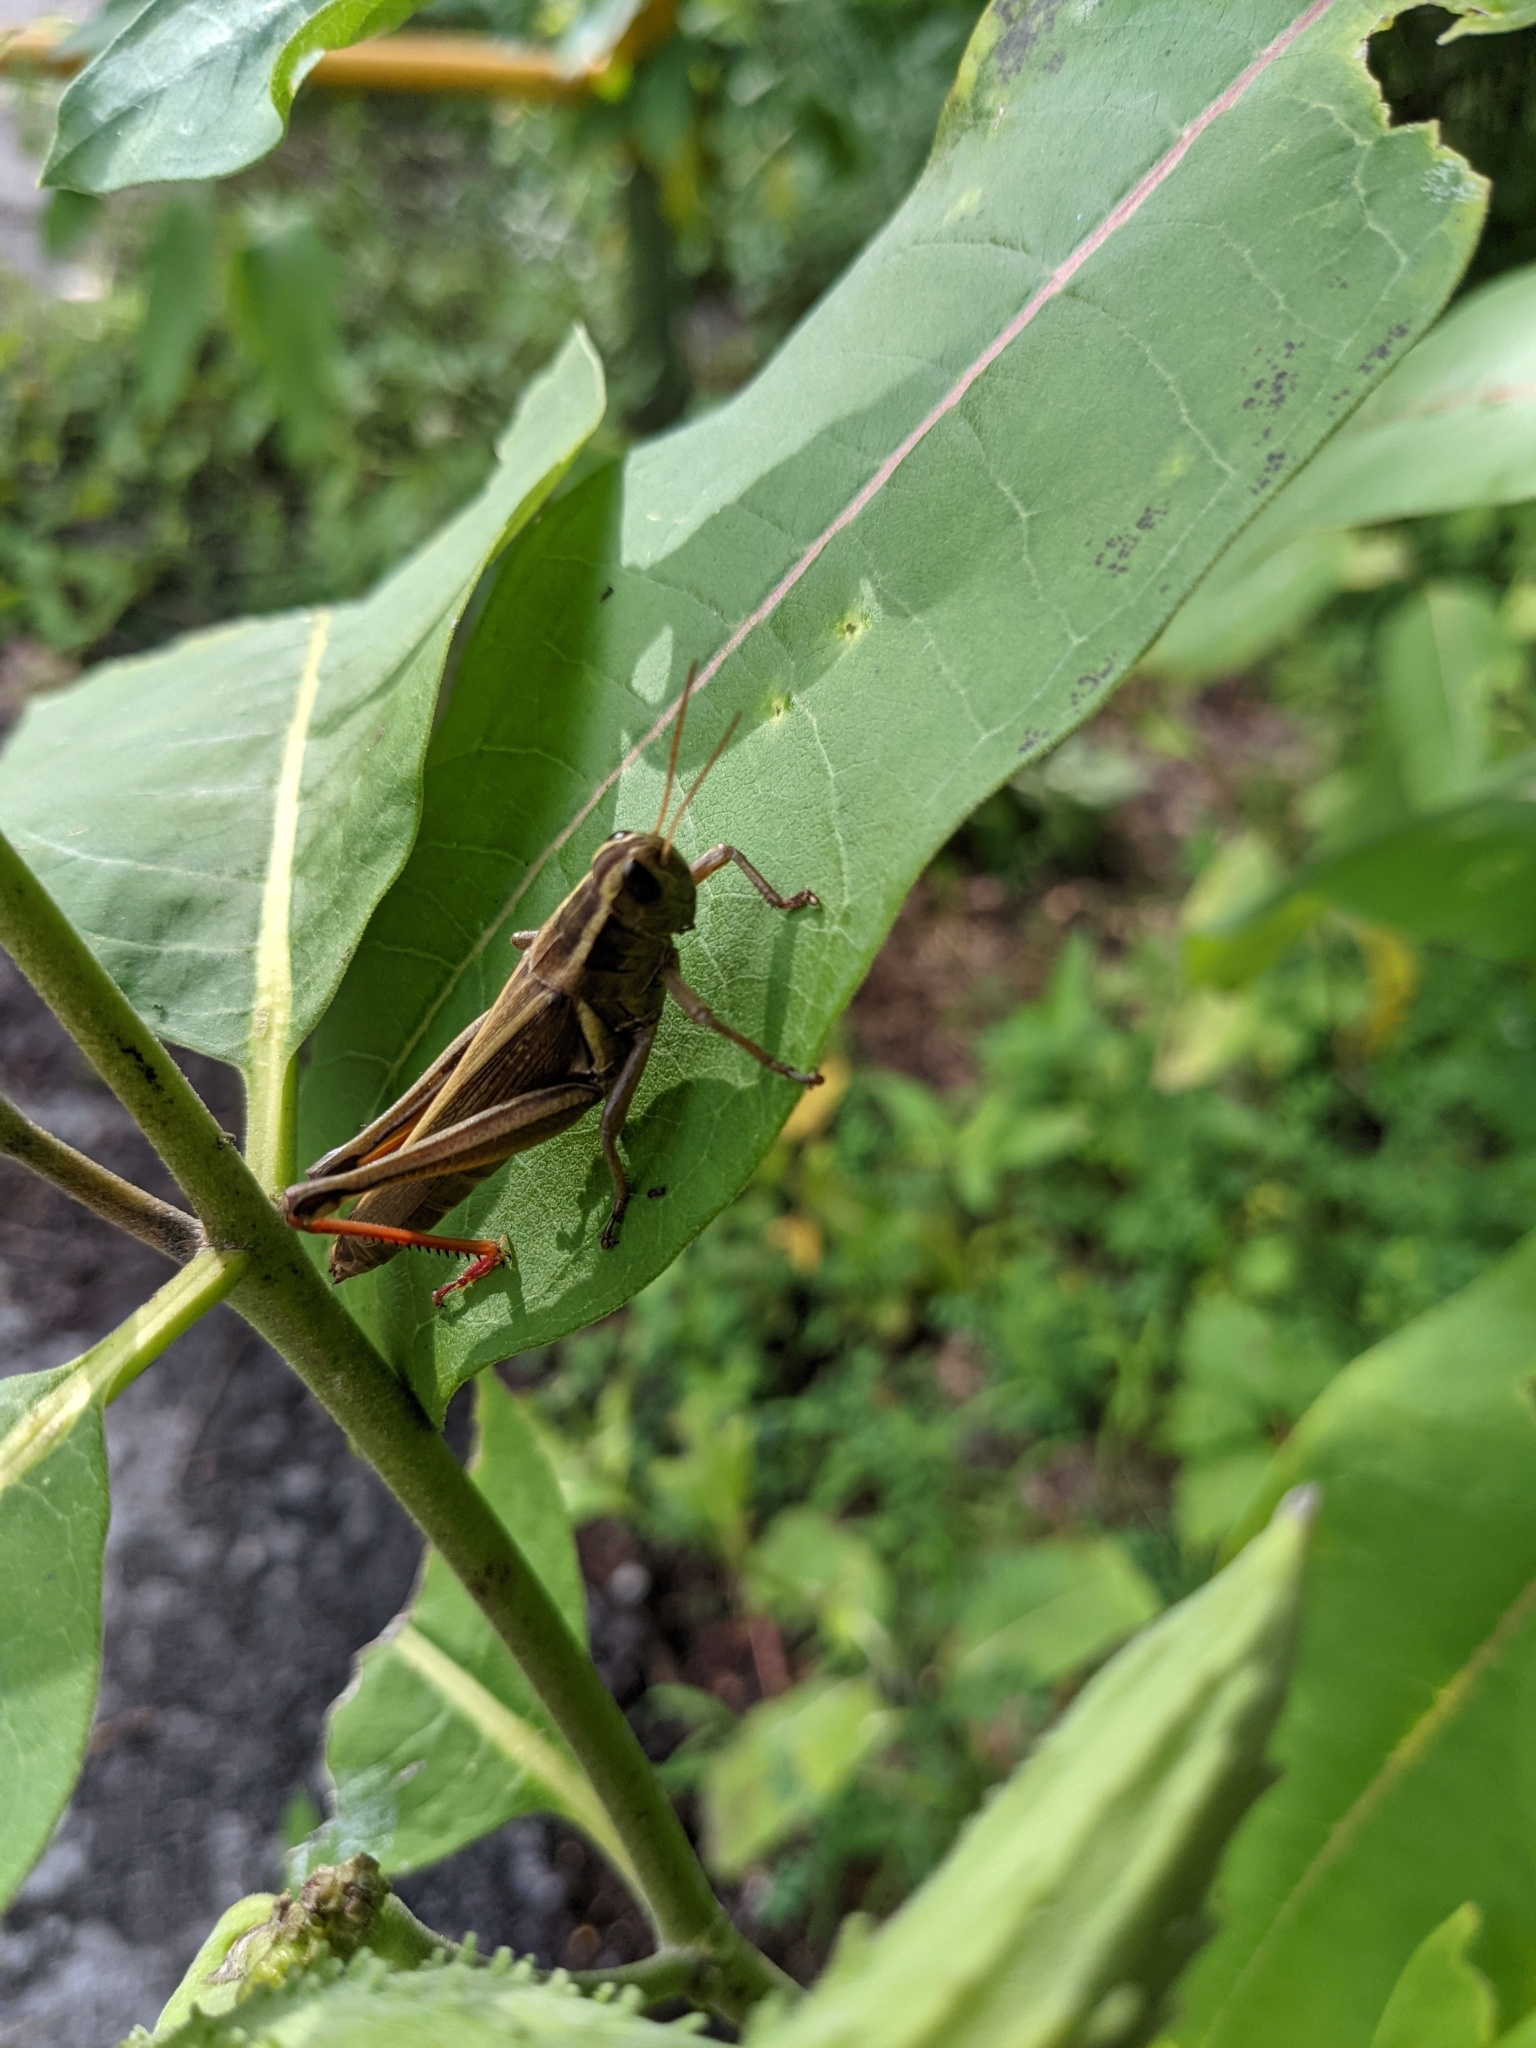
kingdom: Animalia
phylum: Arthropoda
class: Insecta
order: Orthoptera
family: Acrididae
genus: Melanoplus
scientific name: Melanoplus bivittatus
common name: Two-striped grasshopper
